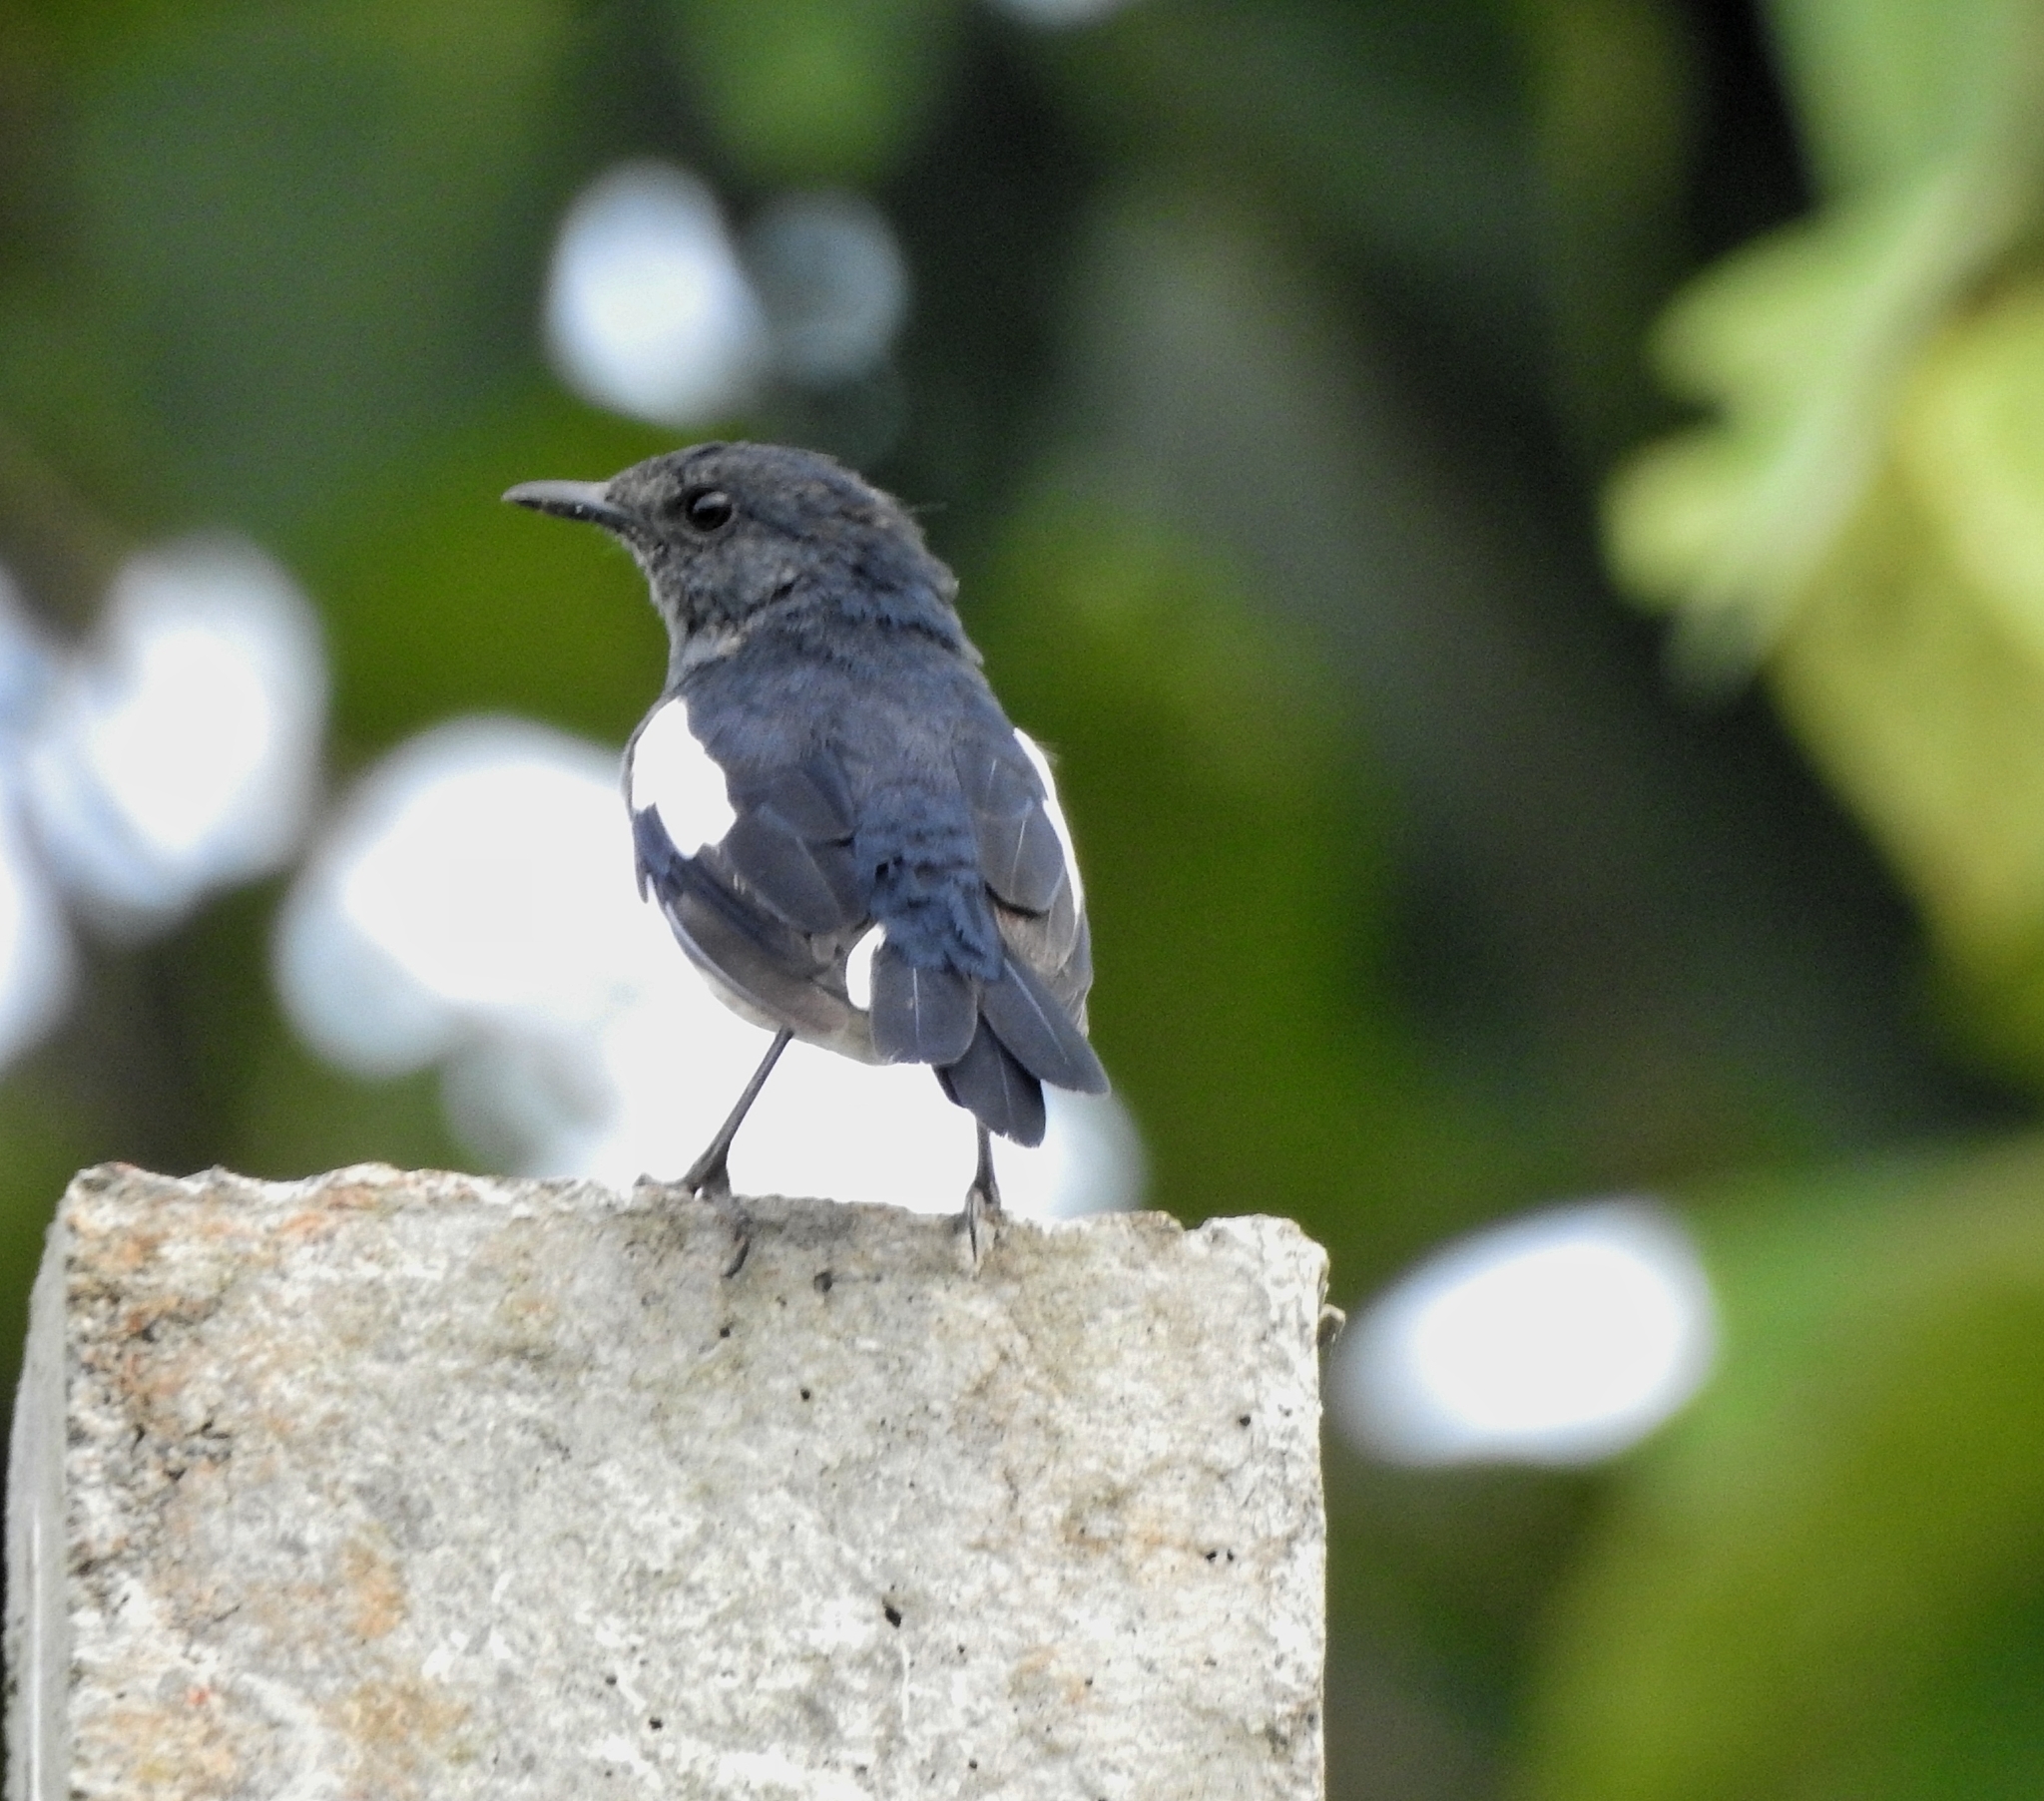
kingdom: Animalia
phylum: Chordata
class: Aves
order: Passeriformes
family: Muscicapidae
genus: Copsychus
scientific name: Copsychus saularis
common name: Oriental magpie-robin
